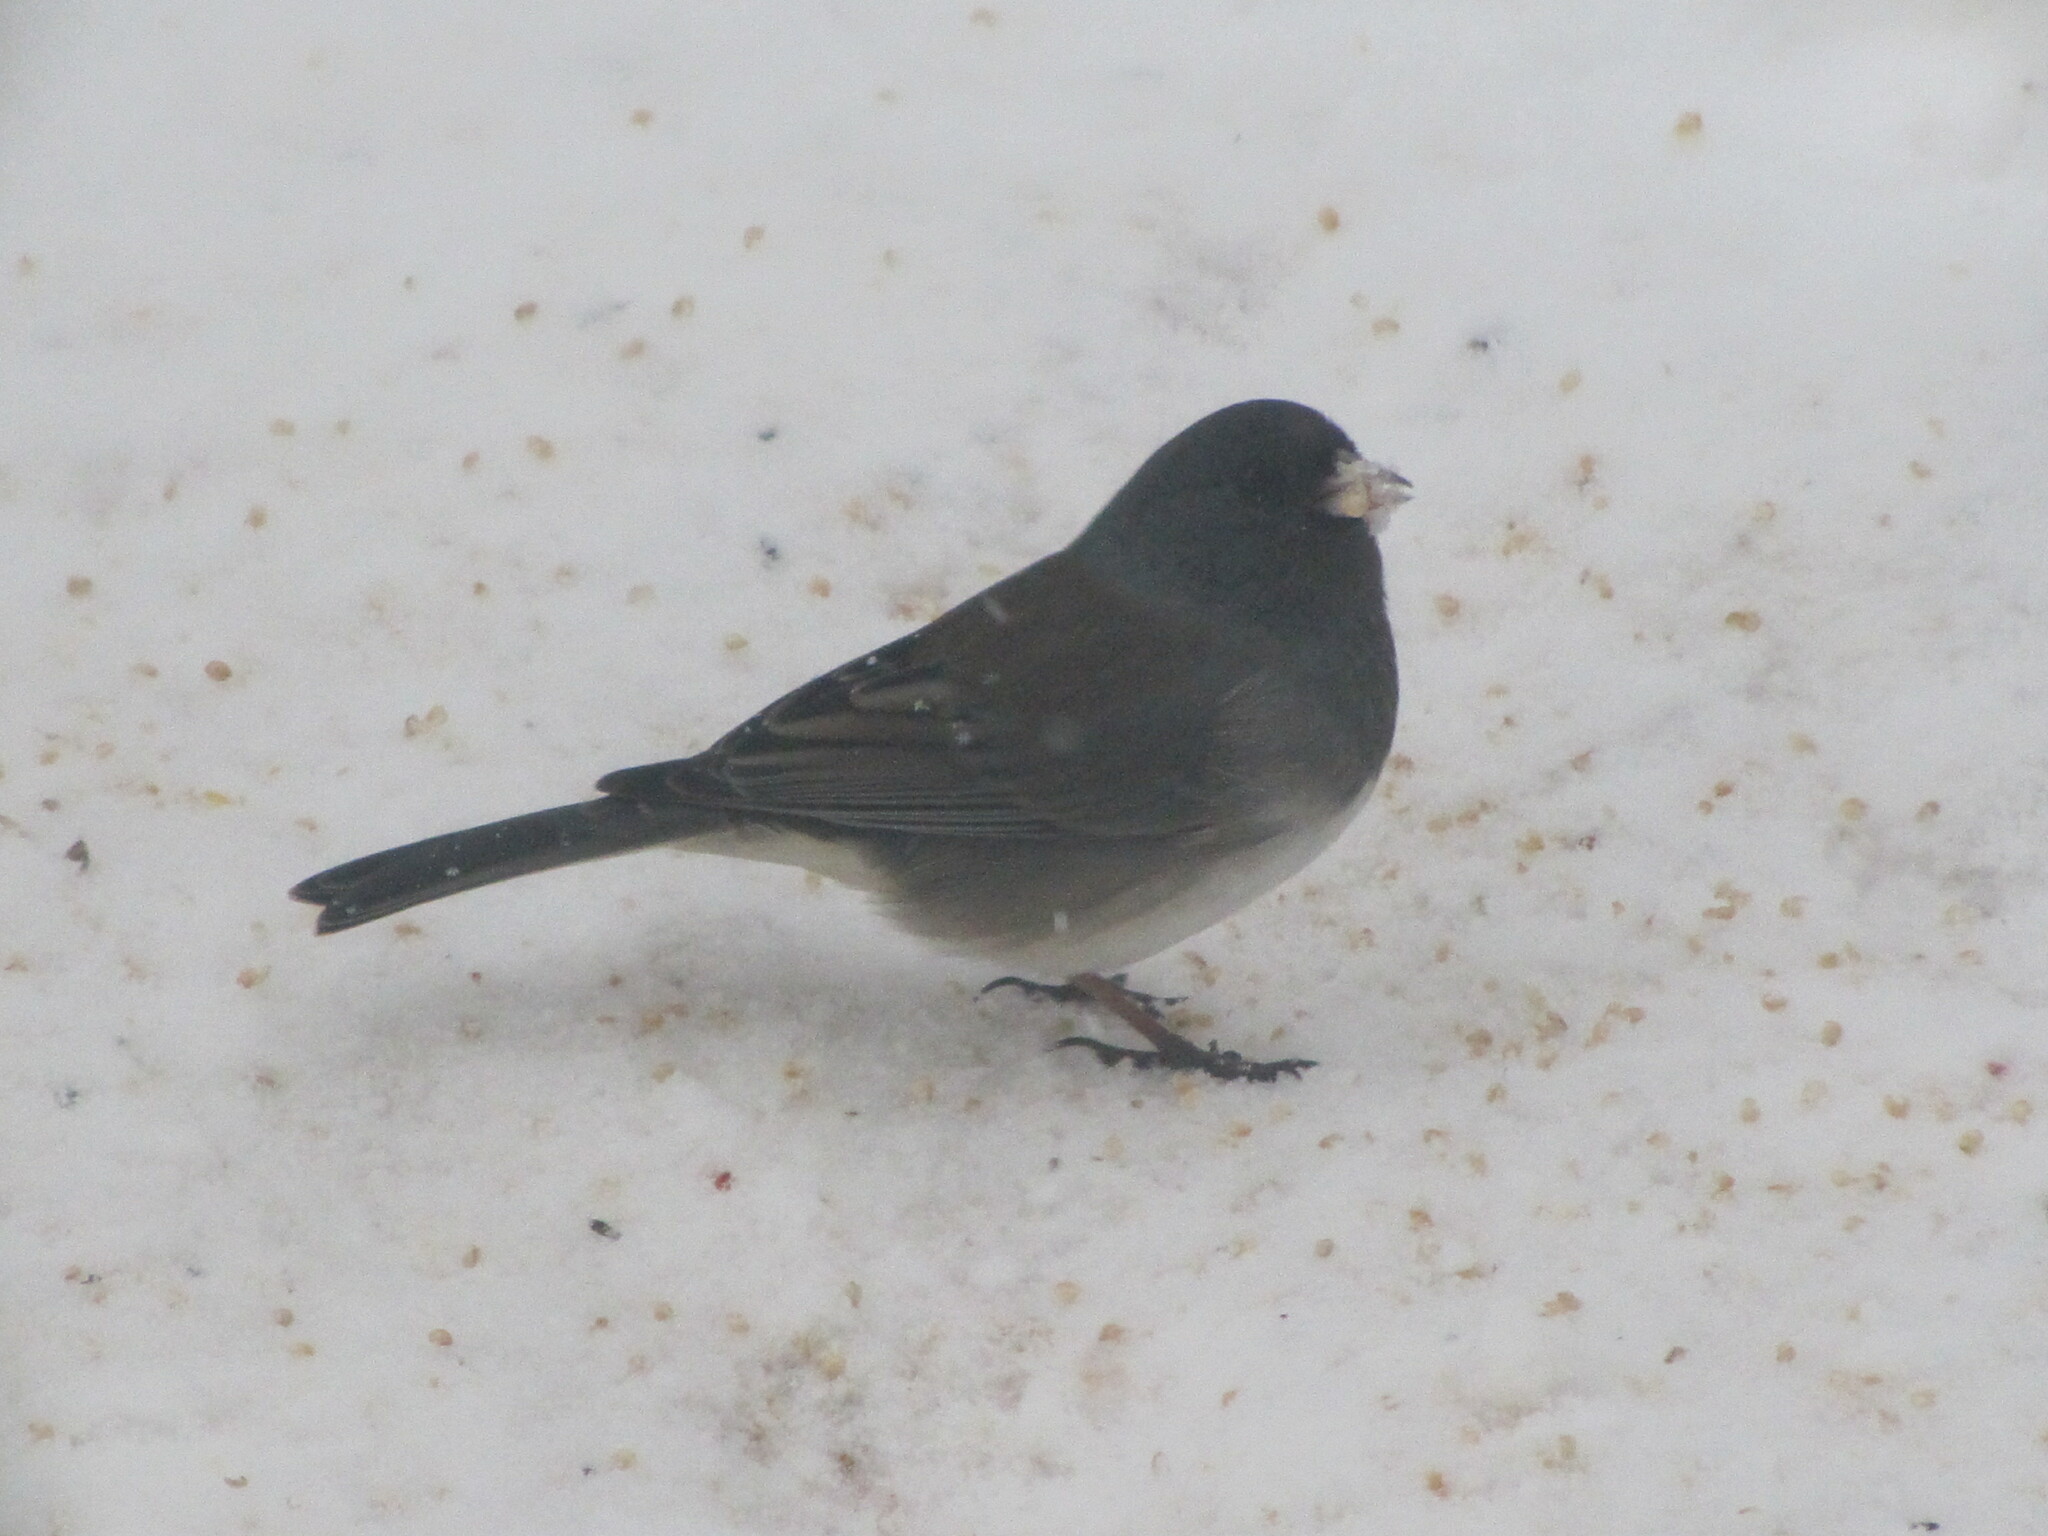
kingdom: Animalia
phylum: Chordata
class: Aves
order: Passeriformes
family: Passerellidae
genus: Junco
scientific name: Junco hyemalis
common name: Dark-eyed junco
